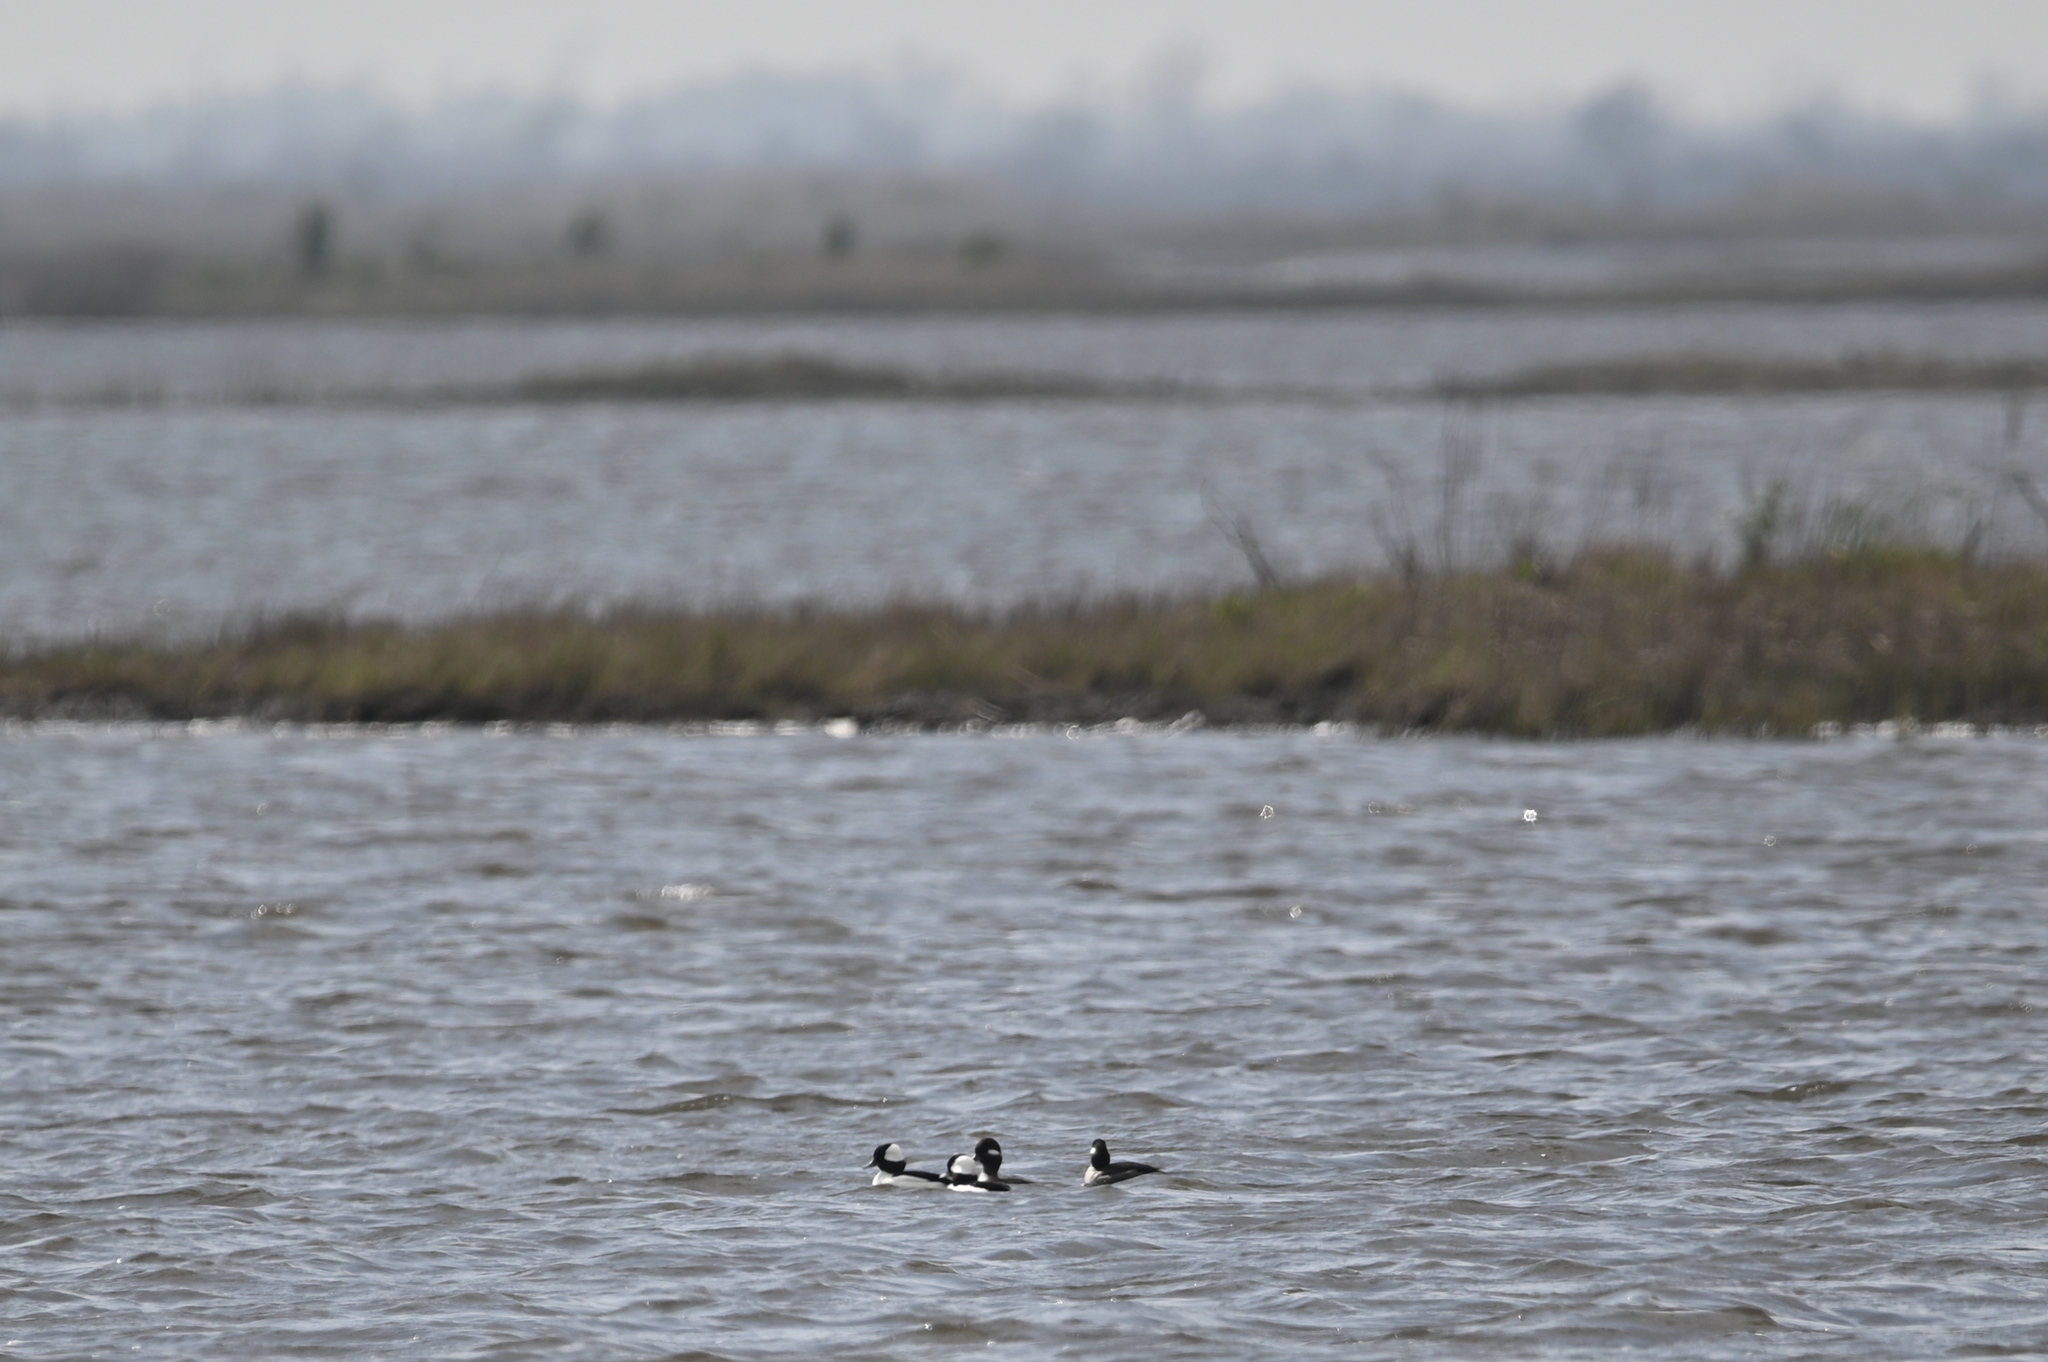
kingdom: Animalia
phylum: Chordata
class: Aves
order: Anseriformes
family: Anatidae
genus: Bucephala
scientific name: Bucephala albeola
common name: Bufflehead
